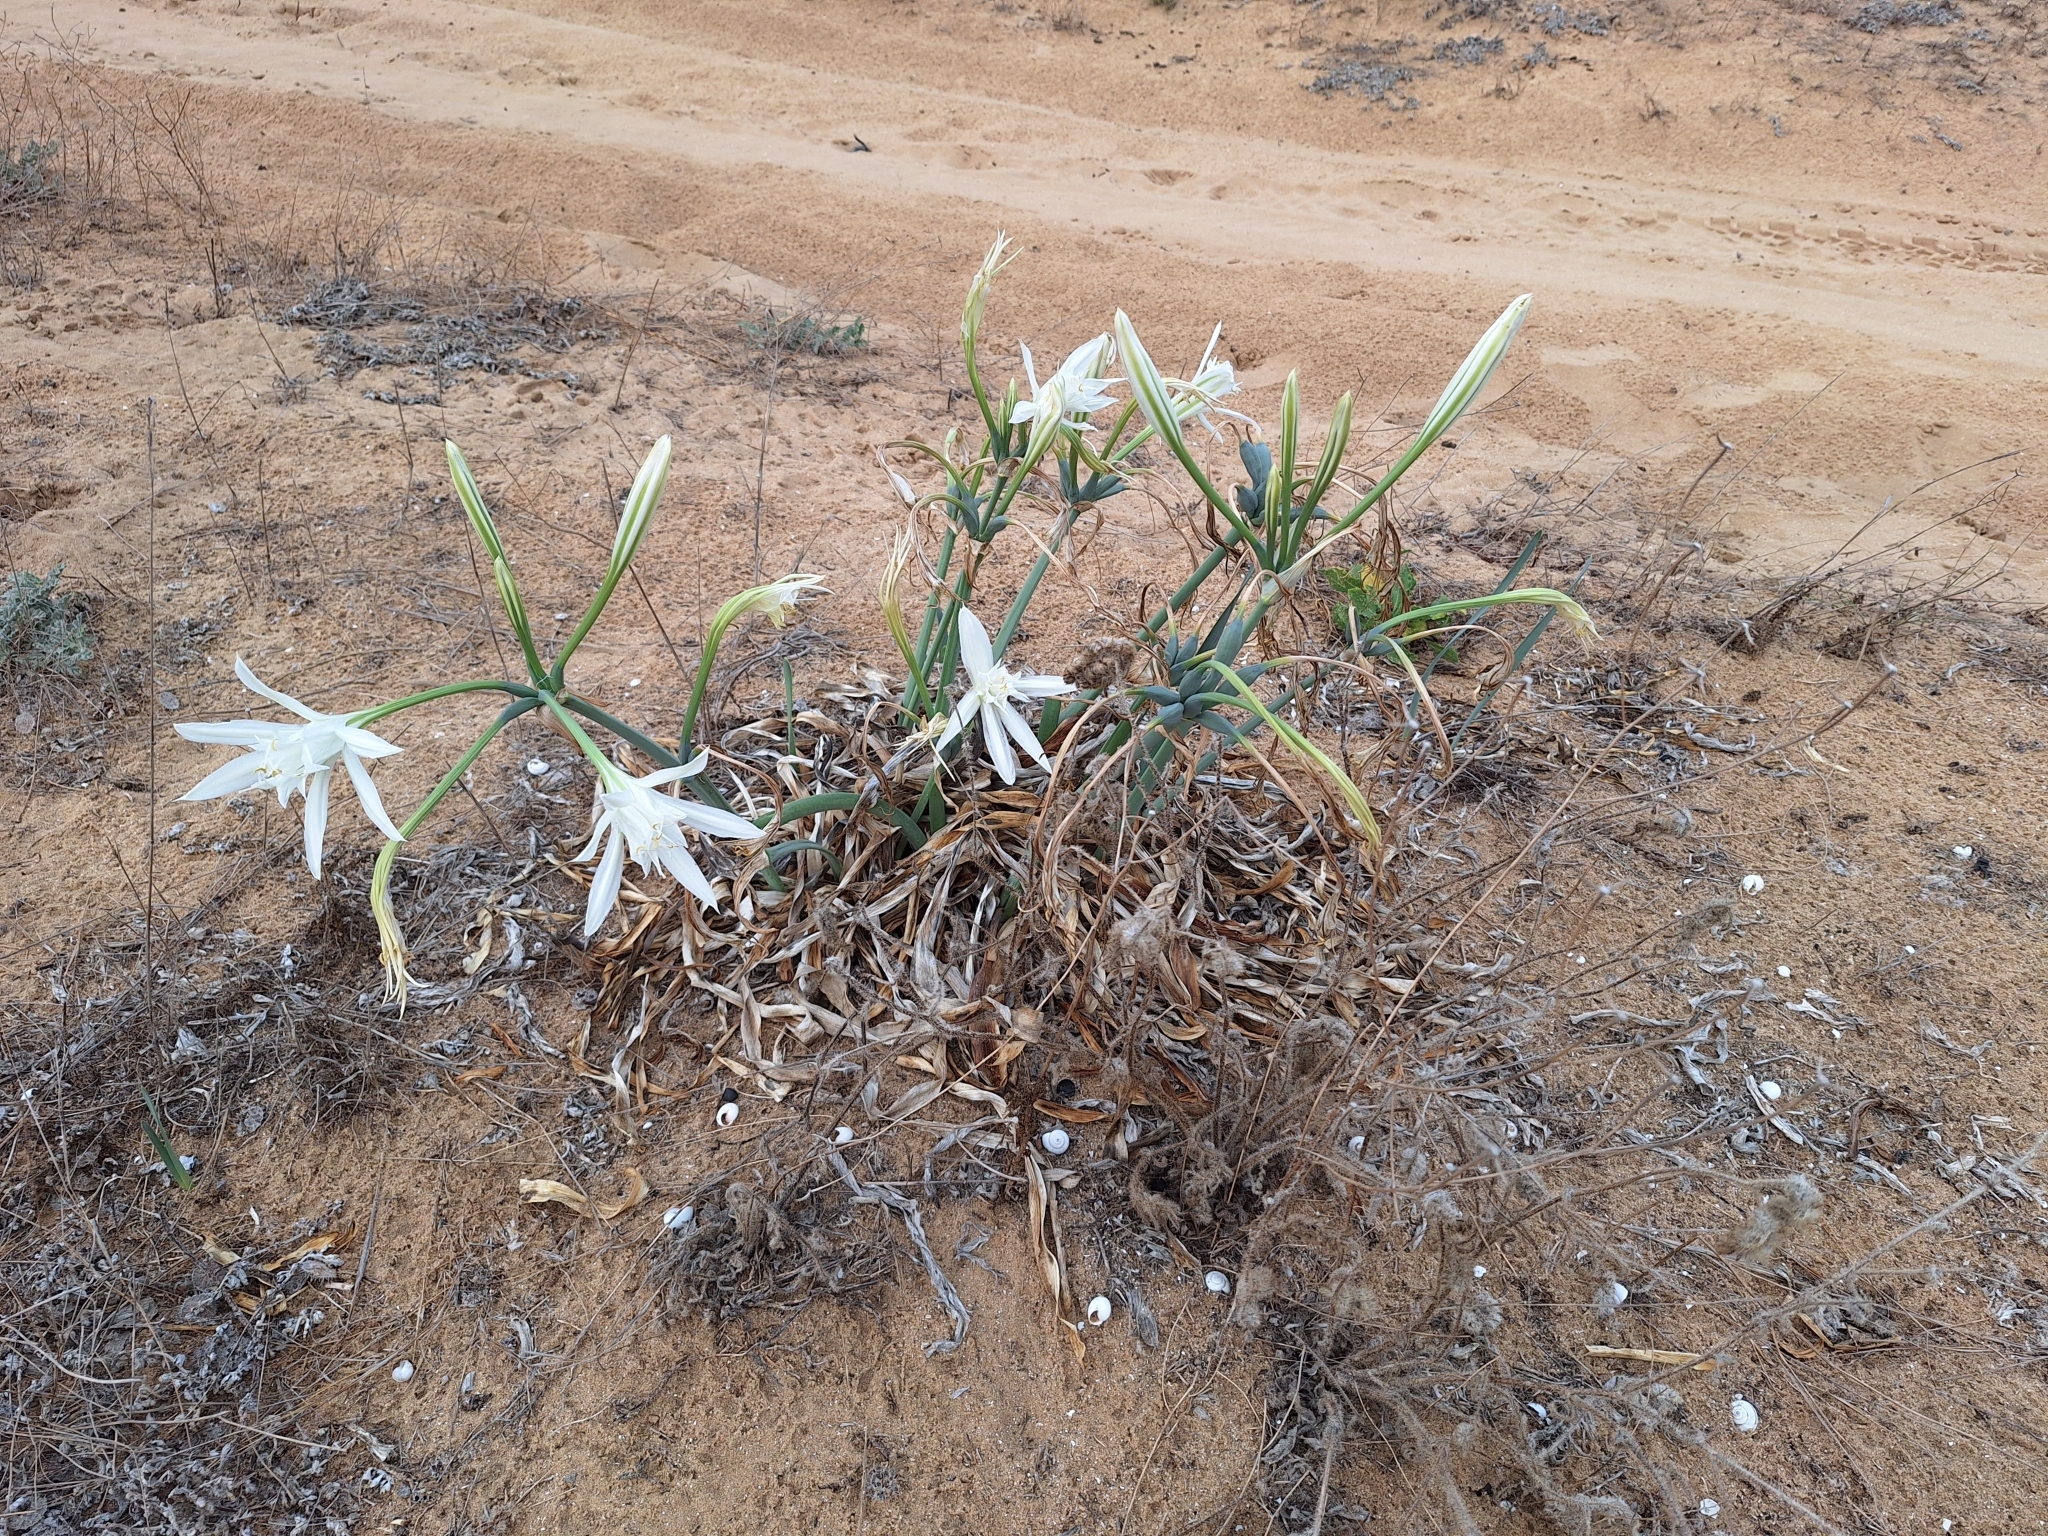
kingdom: Plantae
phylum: Tracheophyta
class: Liliopsida
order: Asparagales
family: Amaryllidaceae
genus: Pancratium
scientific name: Pancratium maritimum
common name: Sea-daffodil
